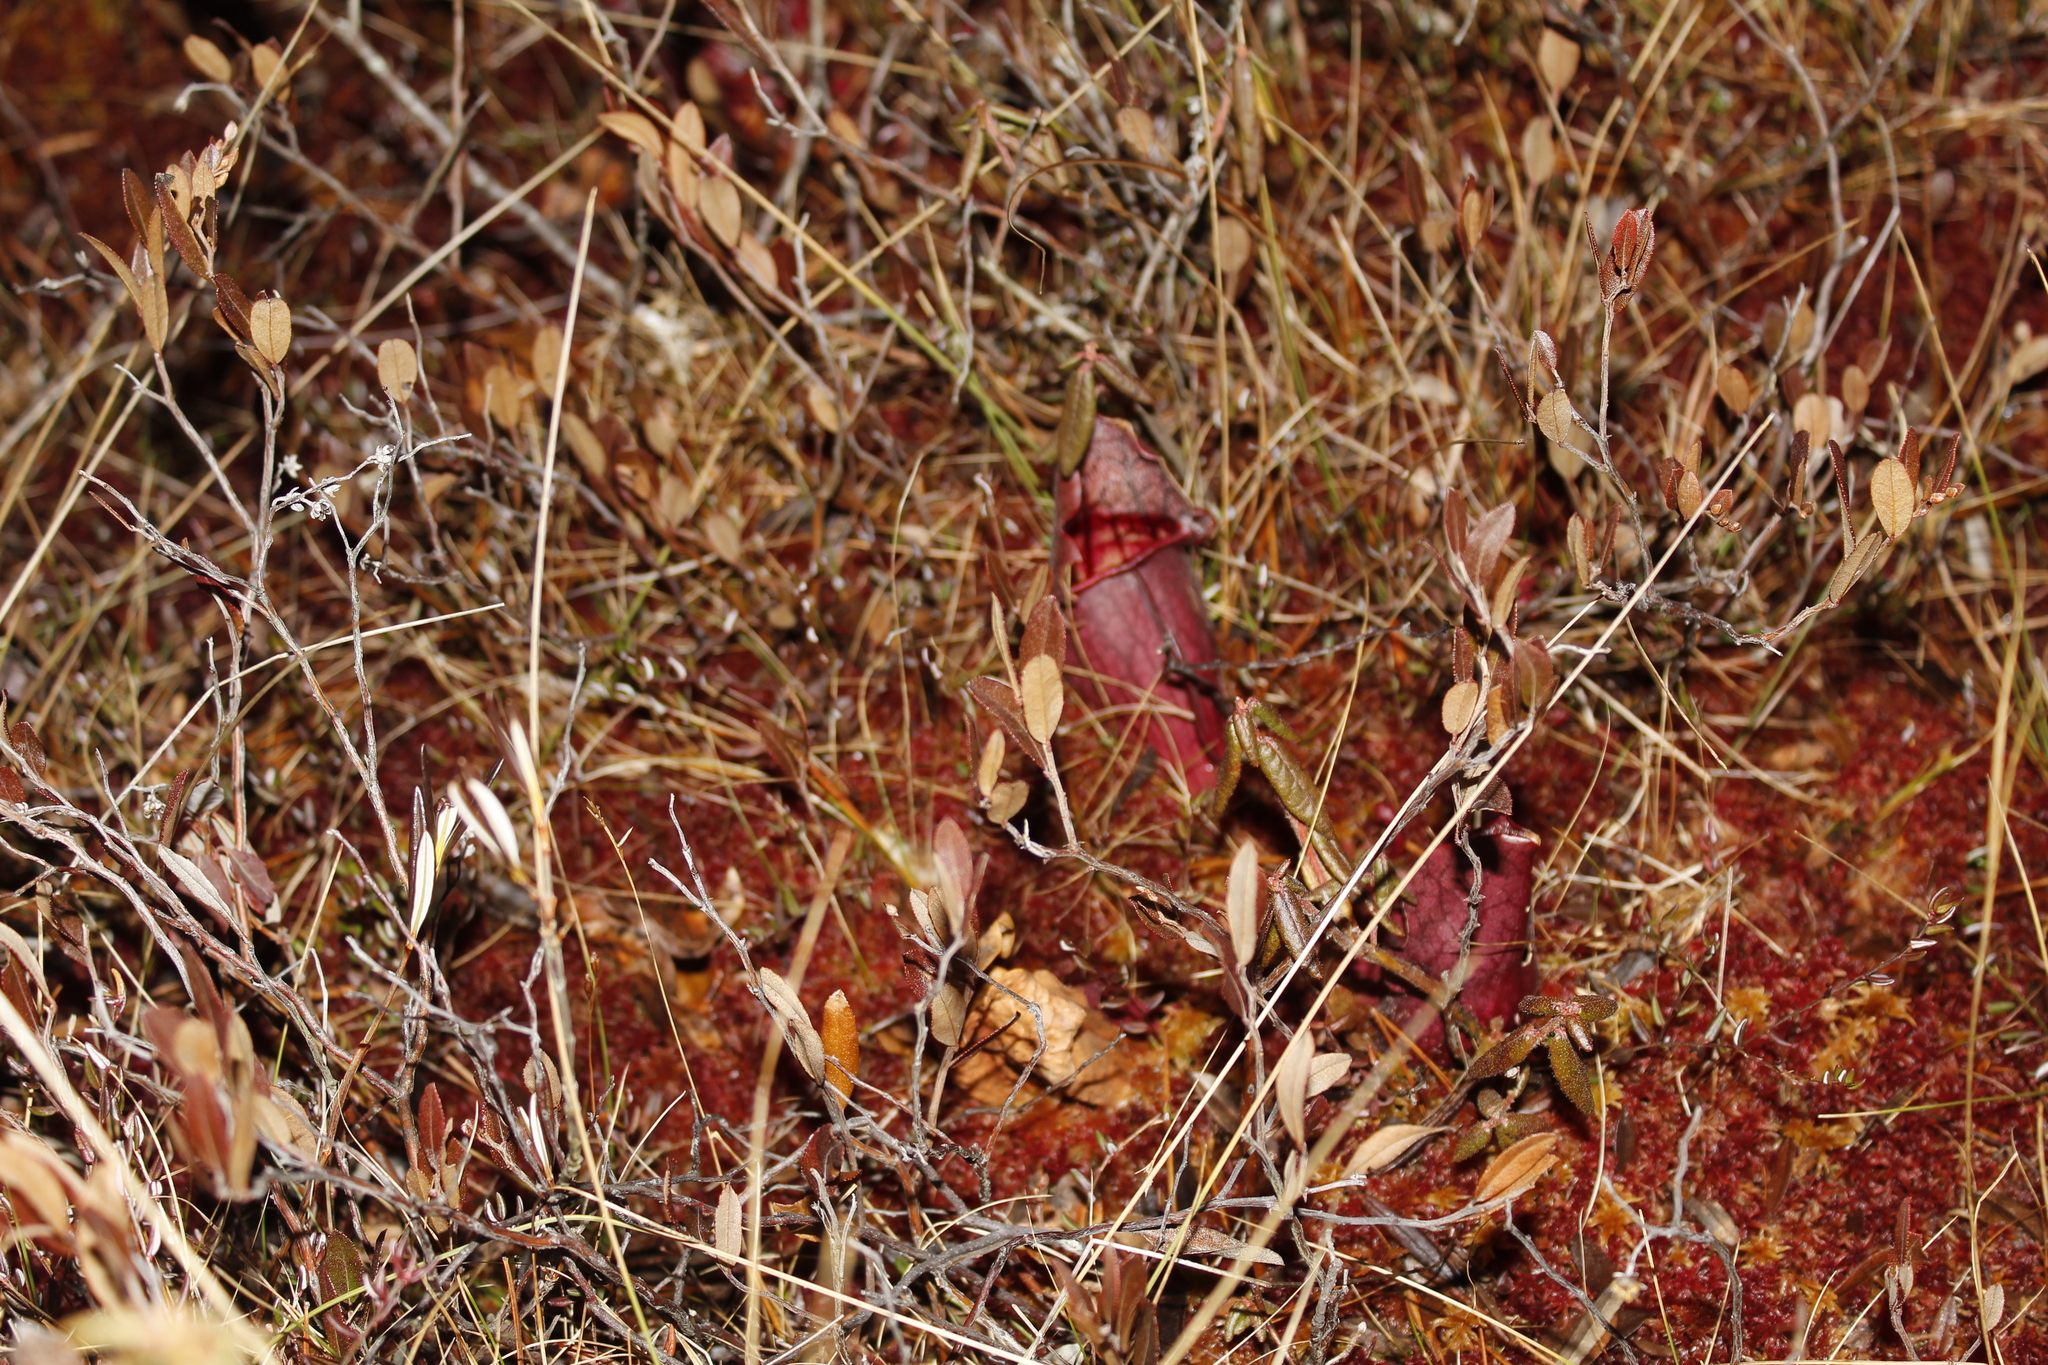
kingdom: Plantae
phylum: Tracheophyta
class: Magnoliopsida
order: Ericales
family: Sarraceniaceae
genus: Sarracenia
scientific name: Sarracenia purpurea
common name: Pitcherplant
